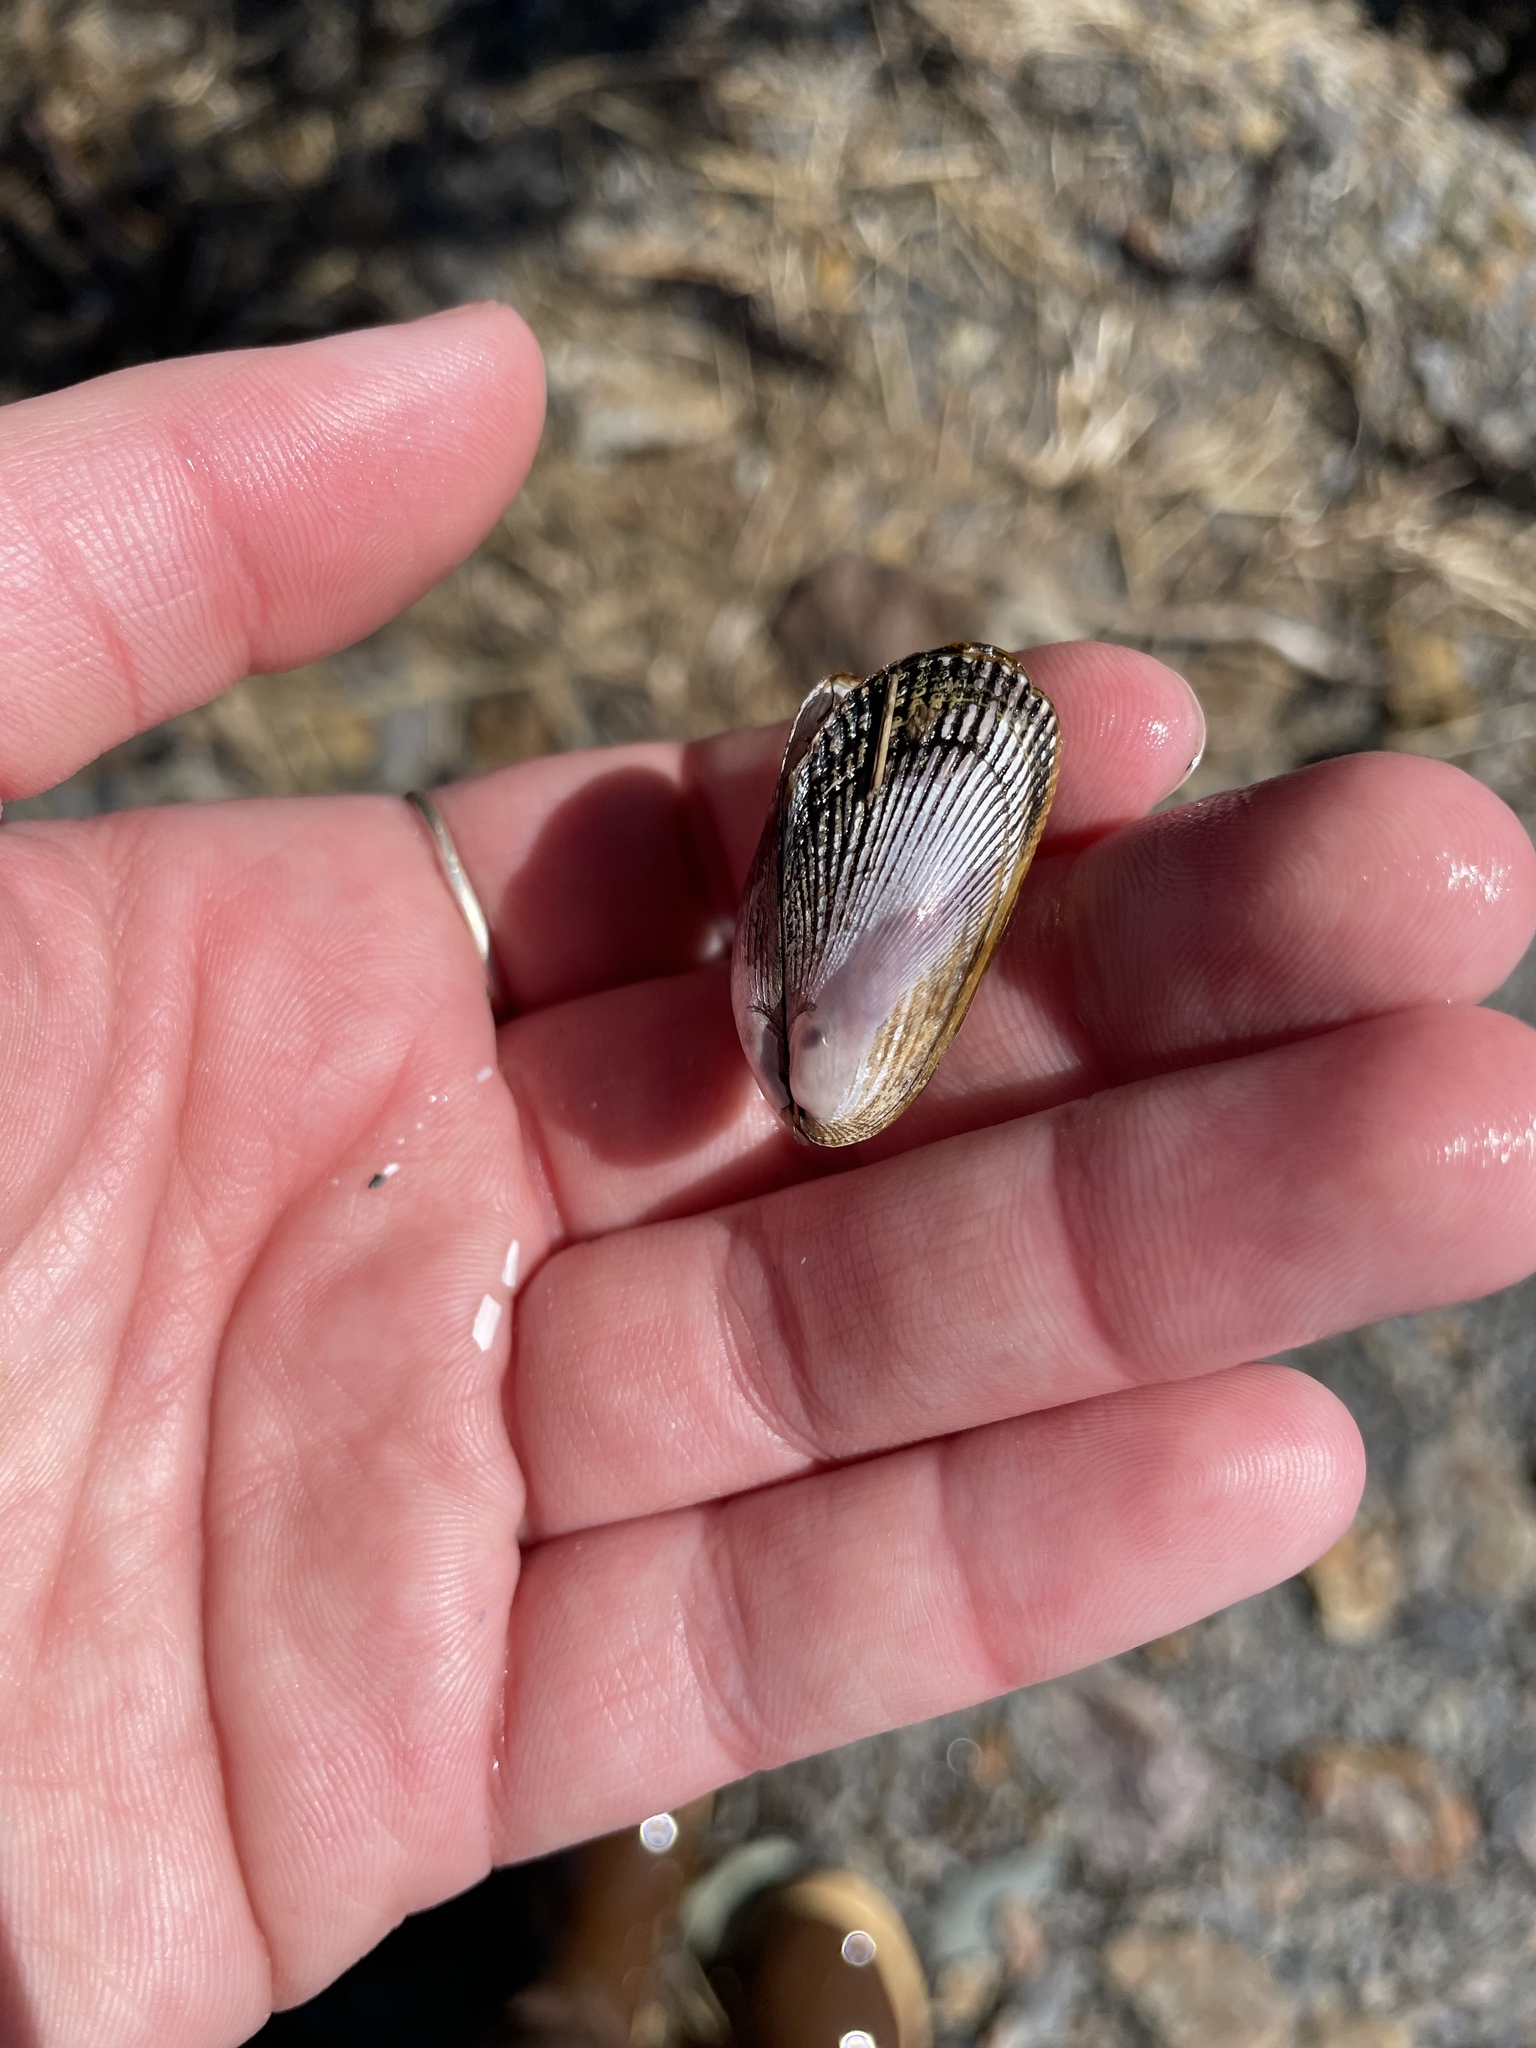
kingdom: Animalia
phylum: Mollusca
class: Bivalvia
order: Mytilida
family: Mytilidae
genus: Geukensia
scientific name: Geukensia demissa
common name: Ribbed mussel
